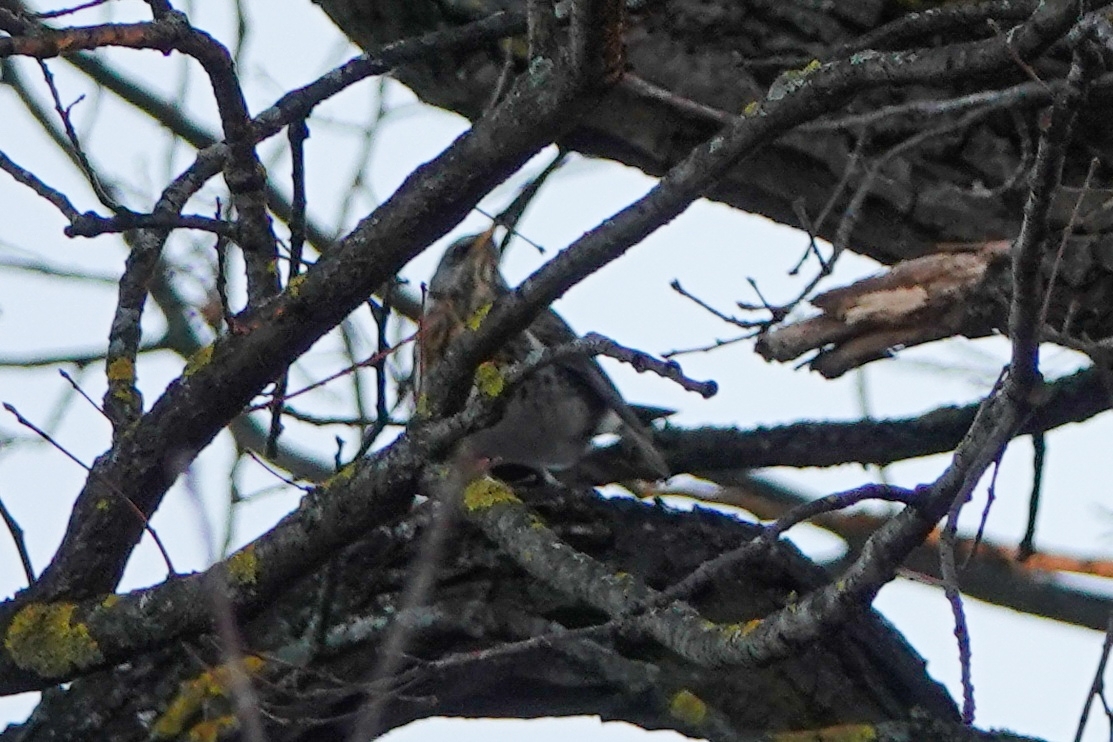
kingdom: Animalia
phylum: Chordata
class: Aves
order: Passeriformes
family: Turdidae
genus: Turdus
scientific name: Turdus pilaris
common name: Fieldfare
